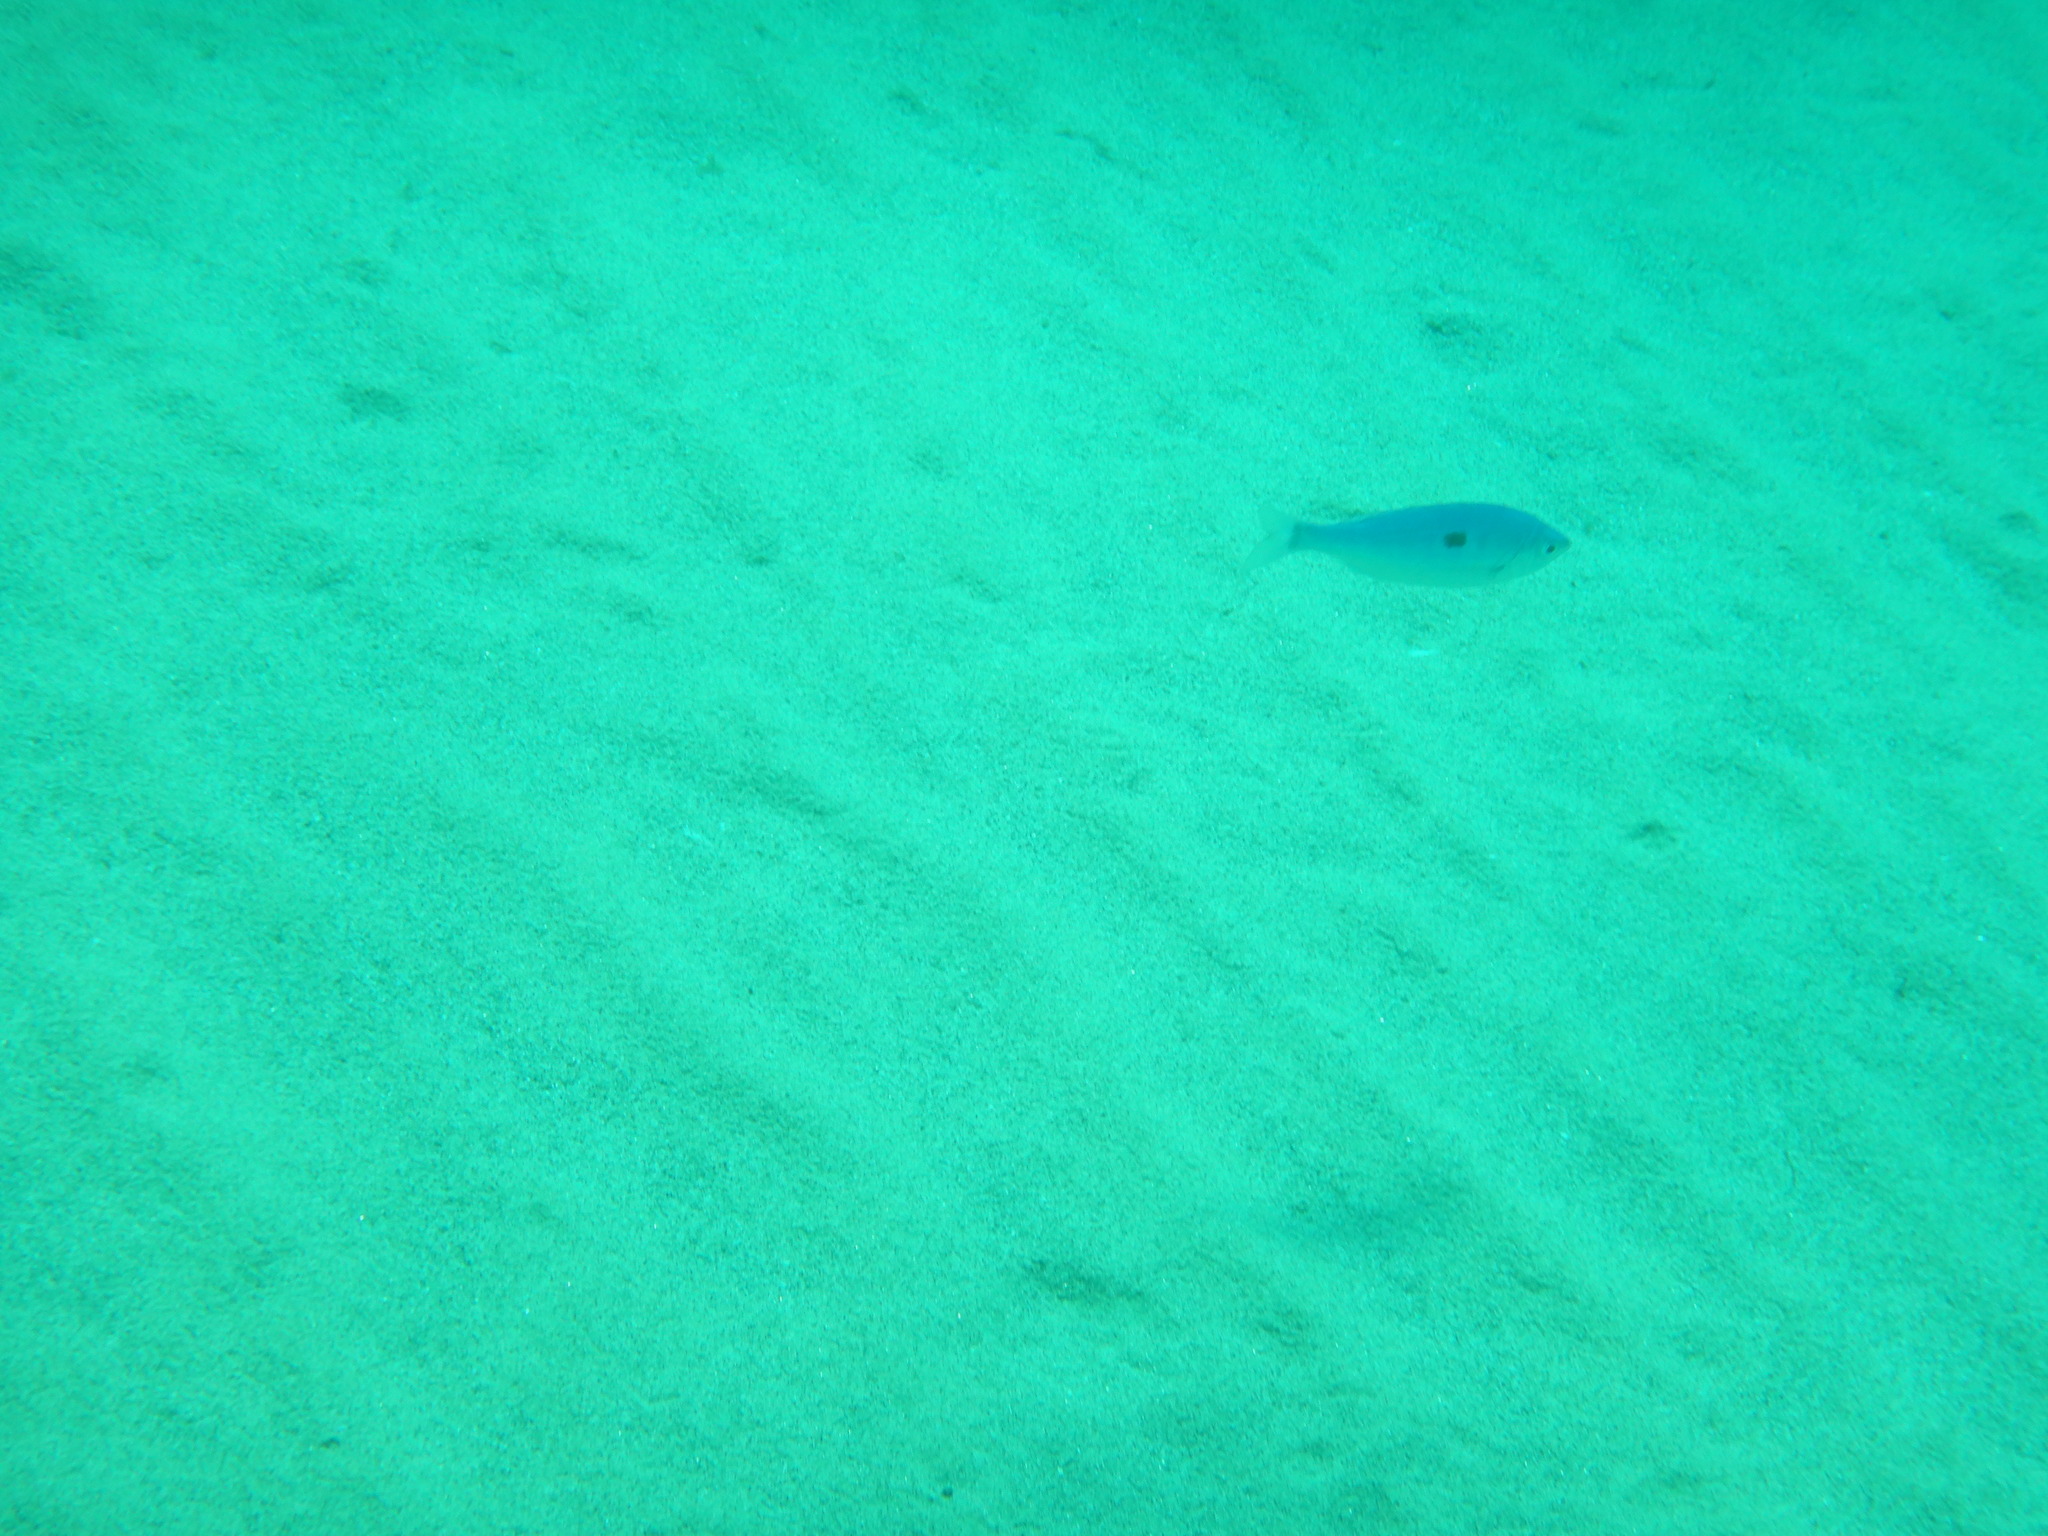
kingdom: Animalia
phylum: Chordata
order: Perciformes
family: Sparidae
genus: Spicara
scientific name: Spicara maena
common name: Blotched picarel
